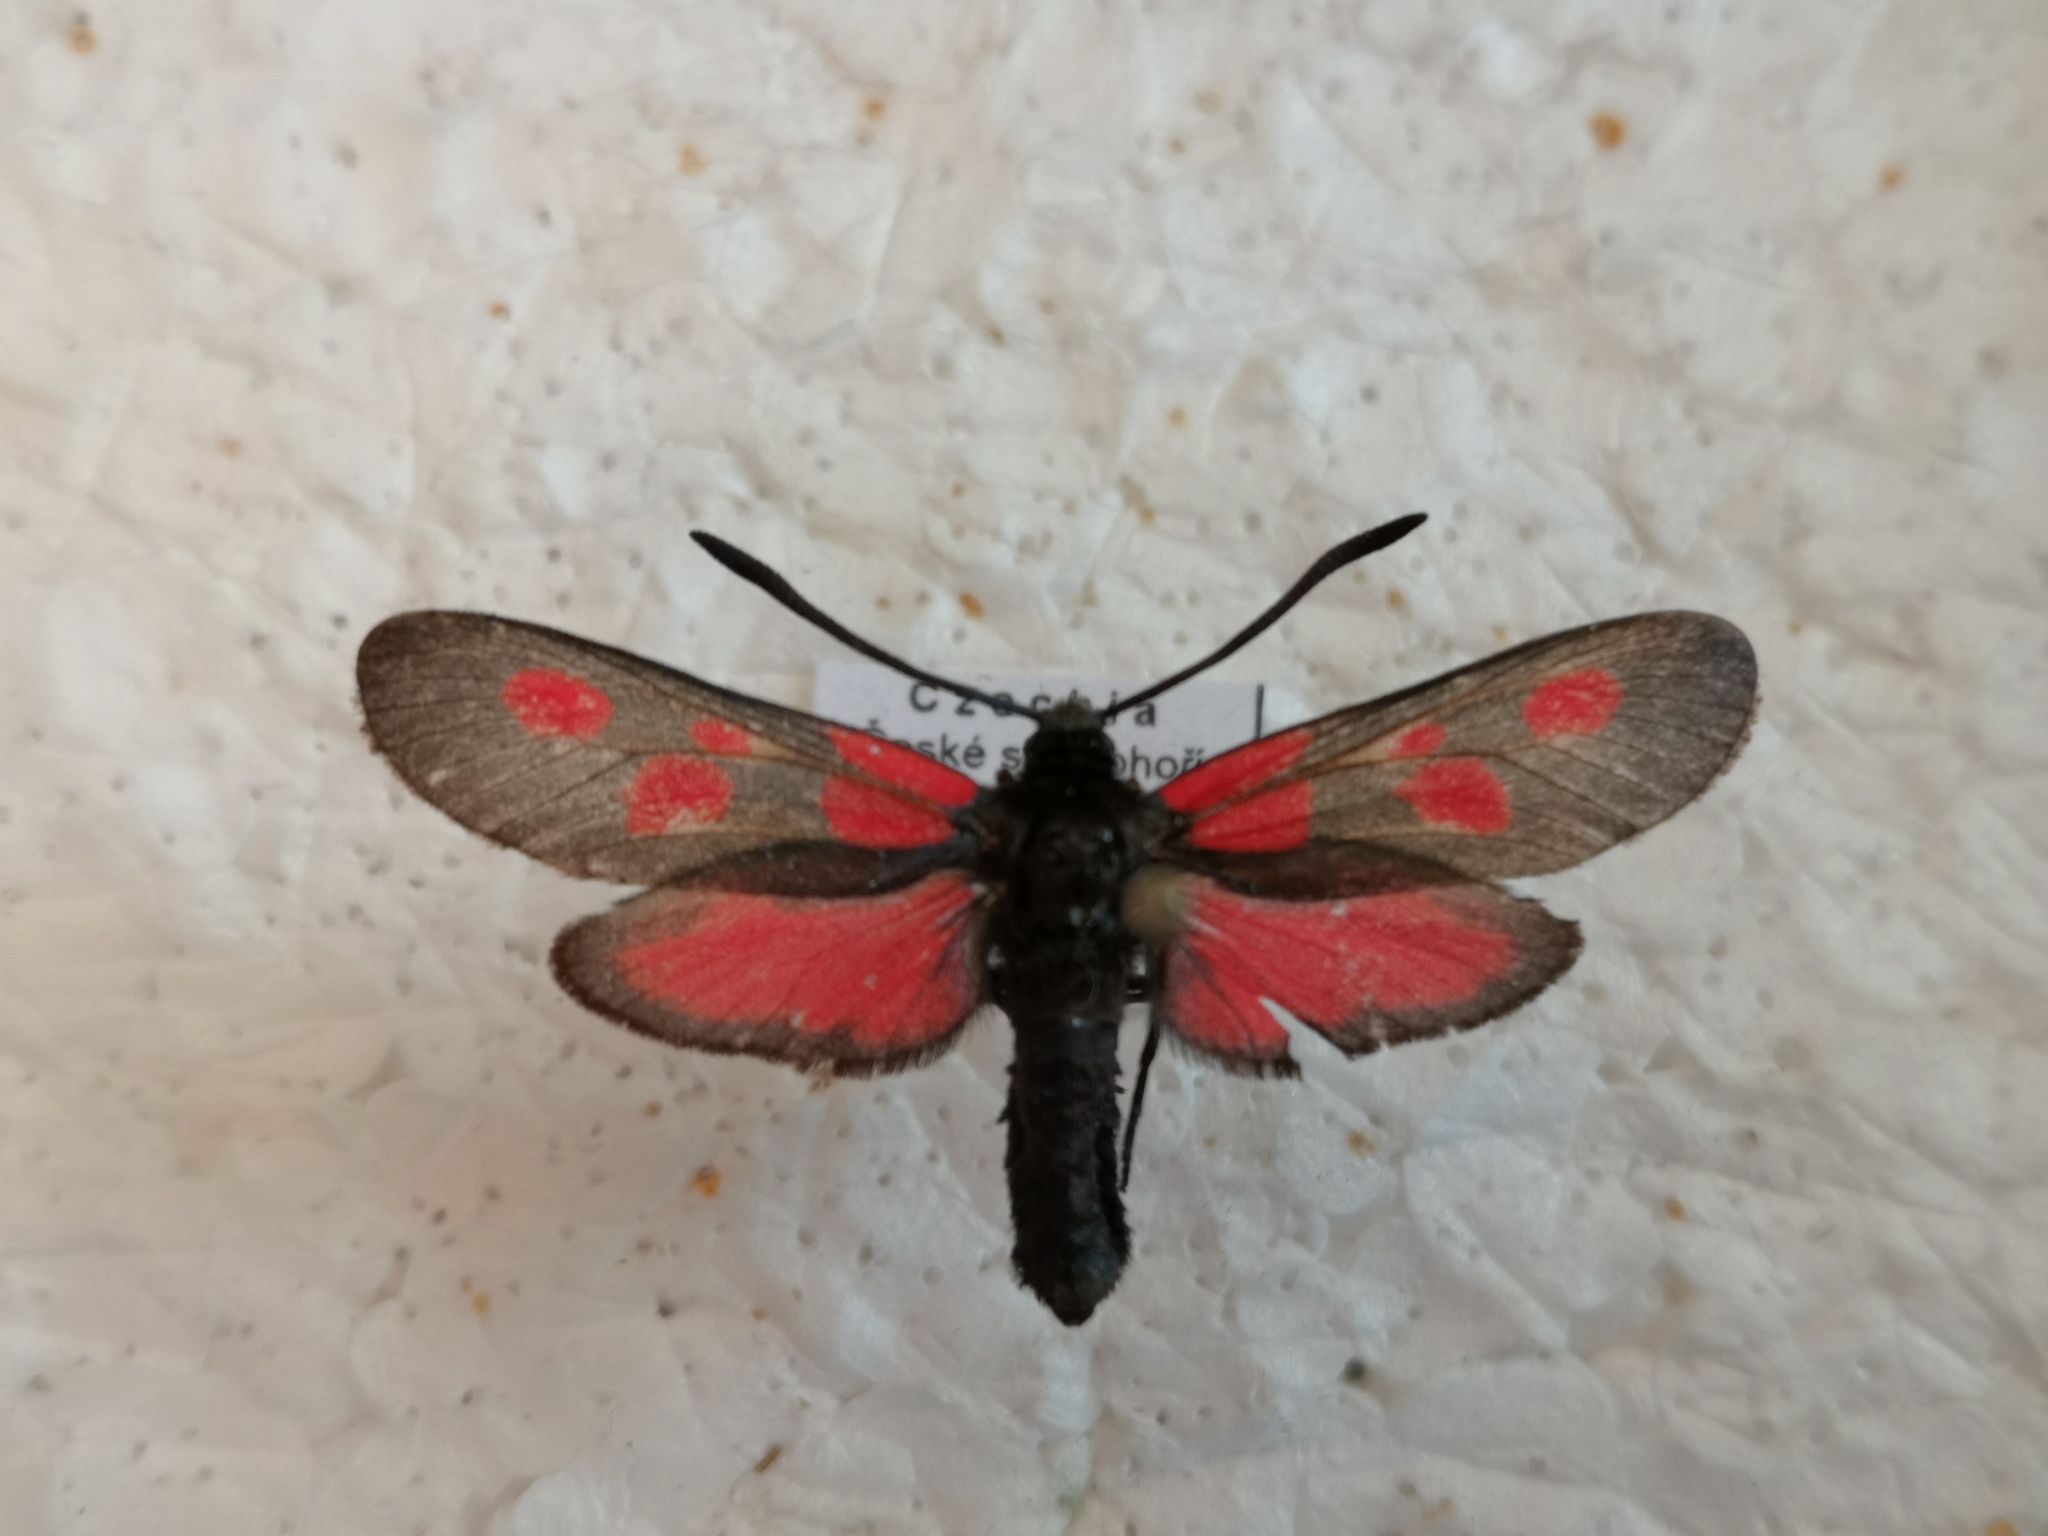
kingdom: Animalia
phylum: Arthropoda
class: Insecta
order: Lepidoptera
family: Zygaenidae
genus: Zygaena
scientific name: Zygaena viciae
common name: New forest burnet
